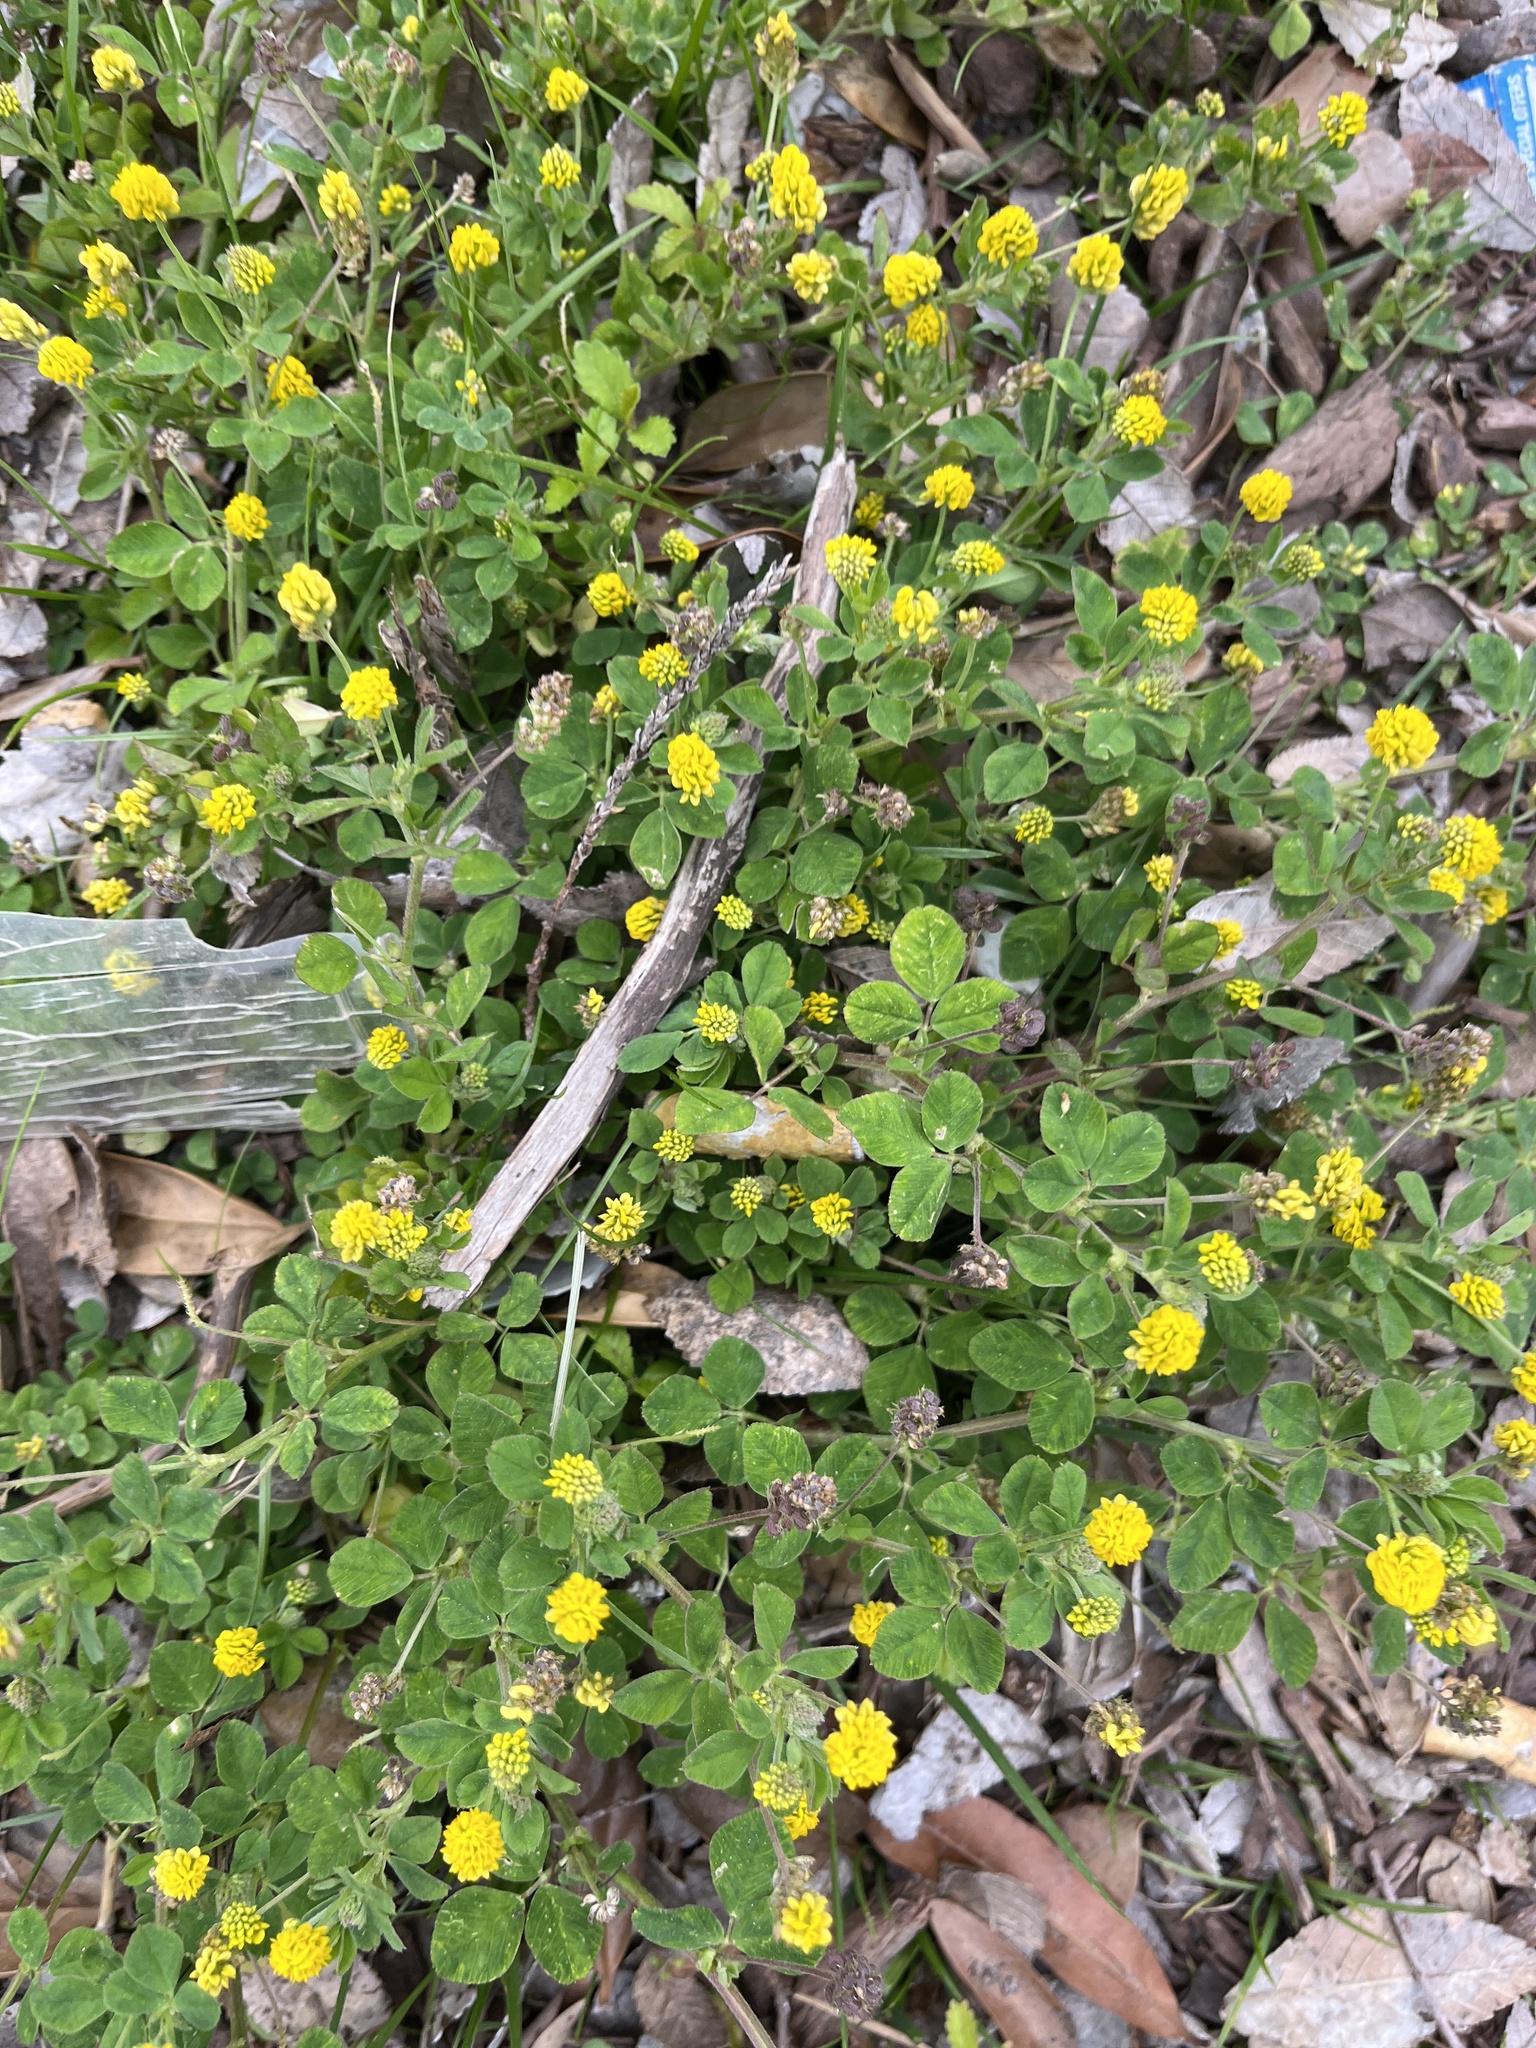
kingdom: Plantae
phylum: Tracheophyta
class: Magnoliopsida
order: Fabales
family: Fabaceae
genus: Medicago
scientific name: Medicago lupulina
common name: Black medick
